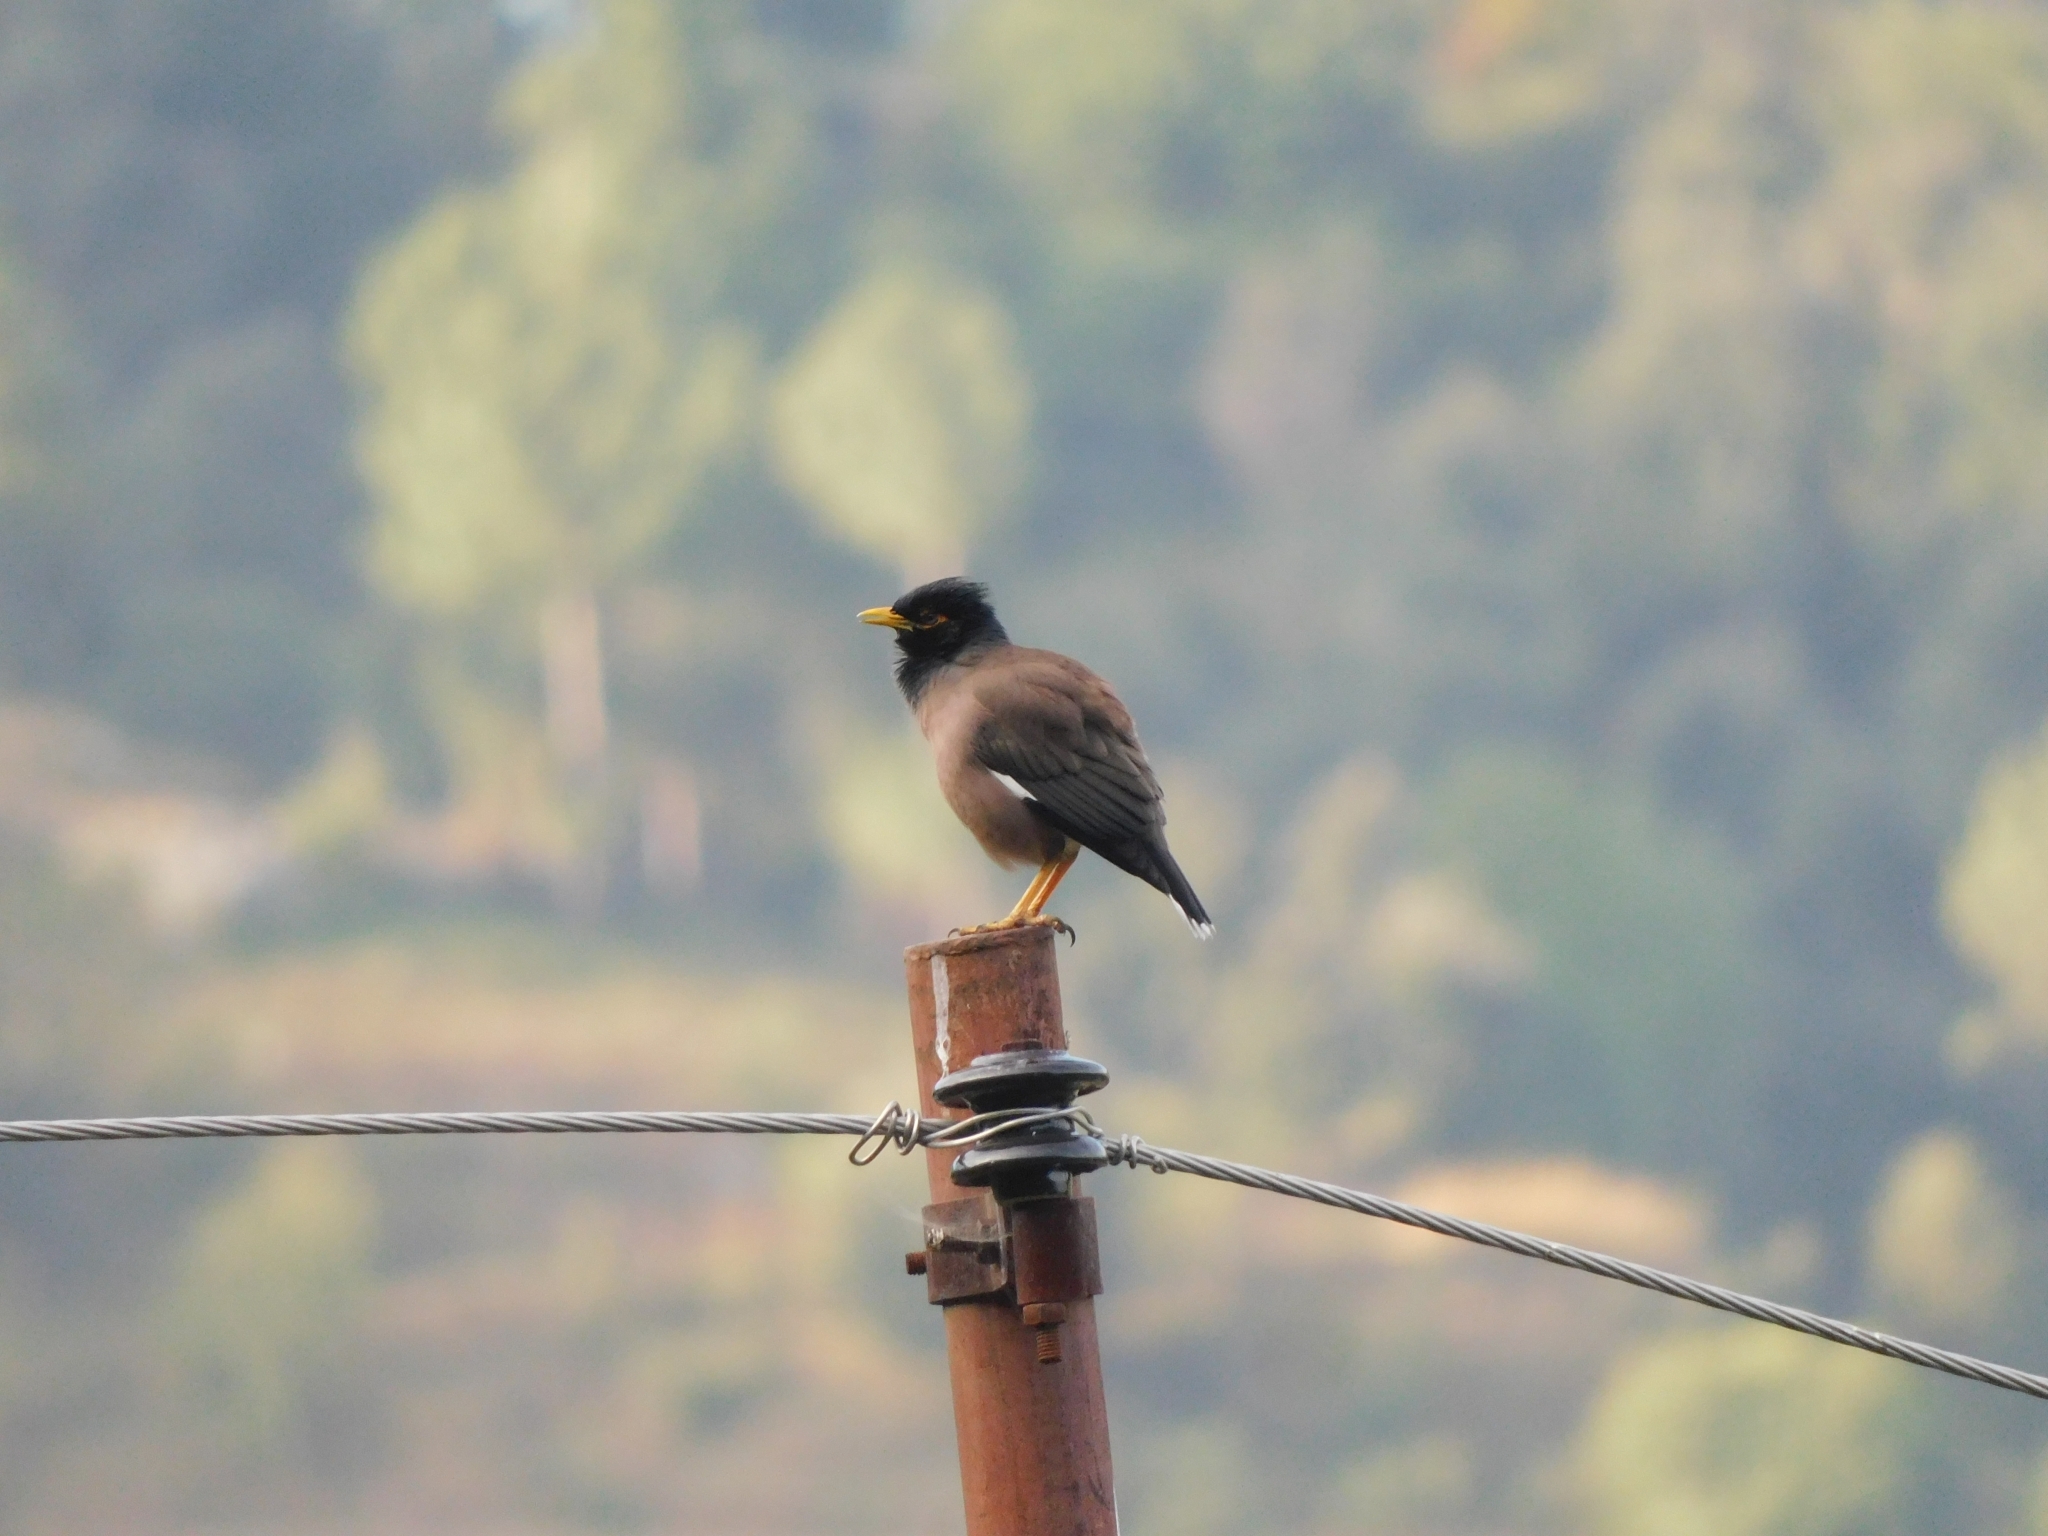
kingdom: Animalia
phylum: Chordata
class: Aves
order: Passeriformes
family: Sturnidae
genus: Acridotheres
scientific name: Acridotheres tristis
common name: Common myna
